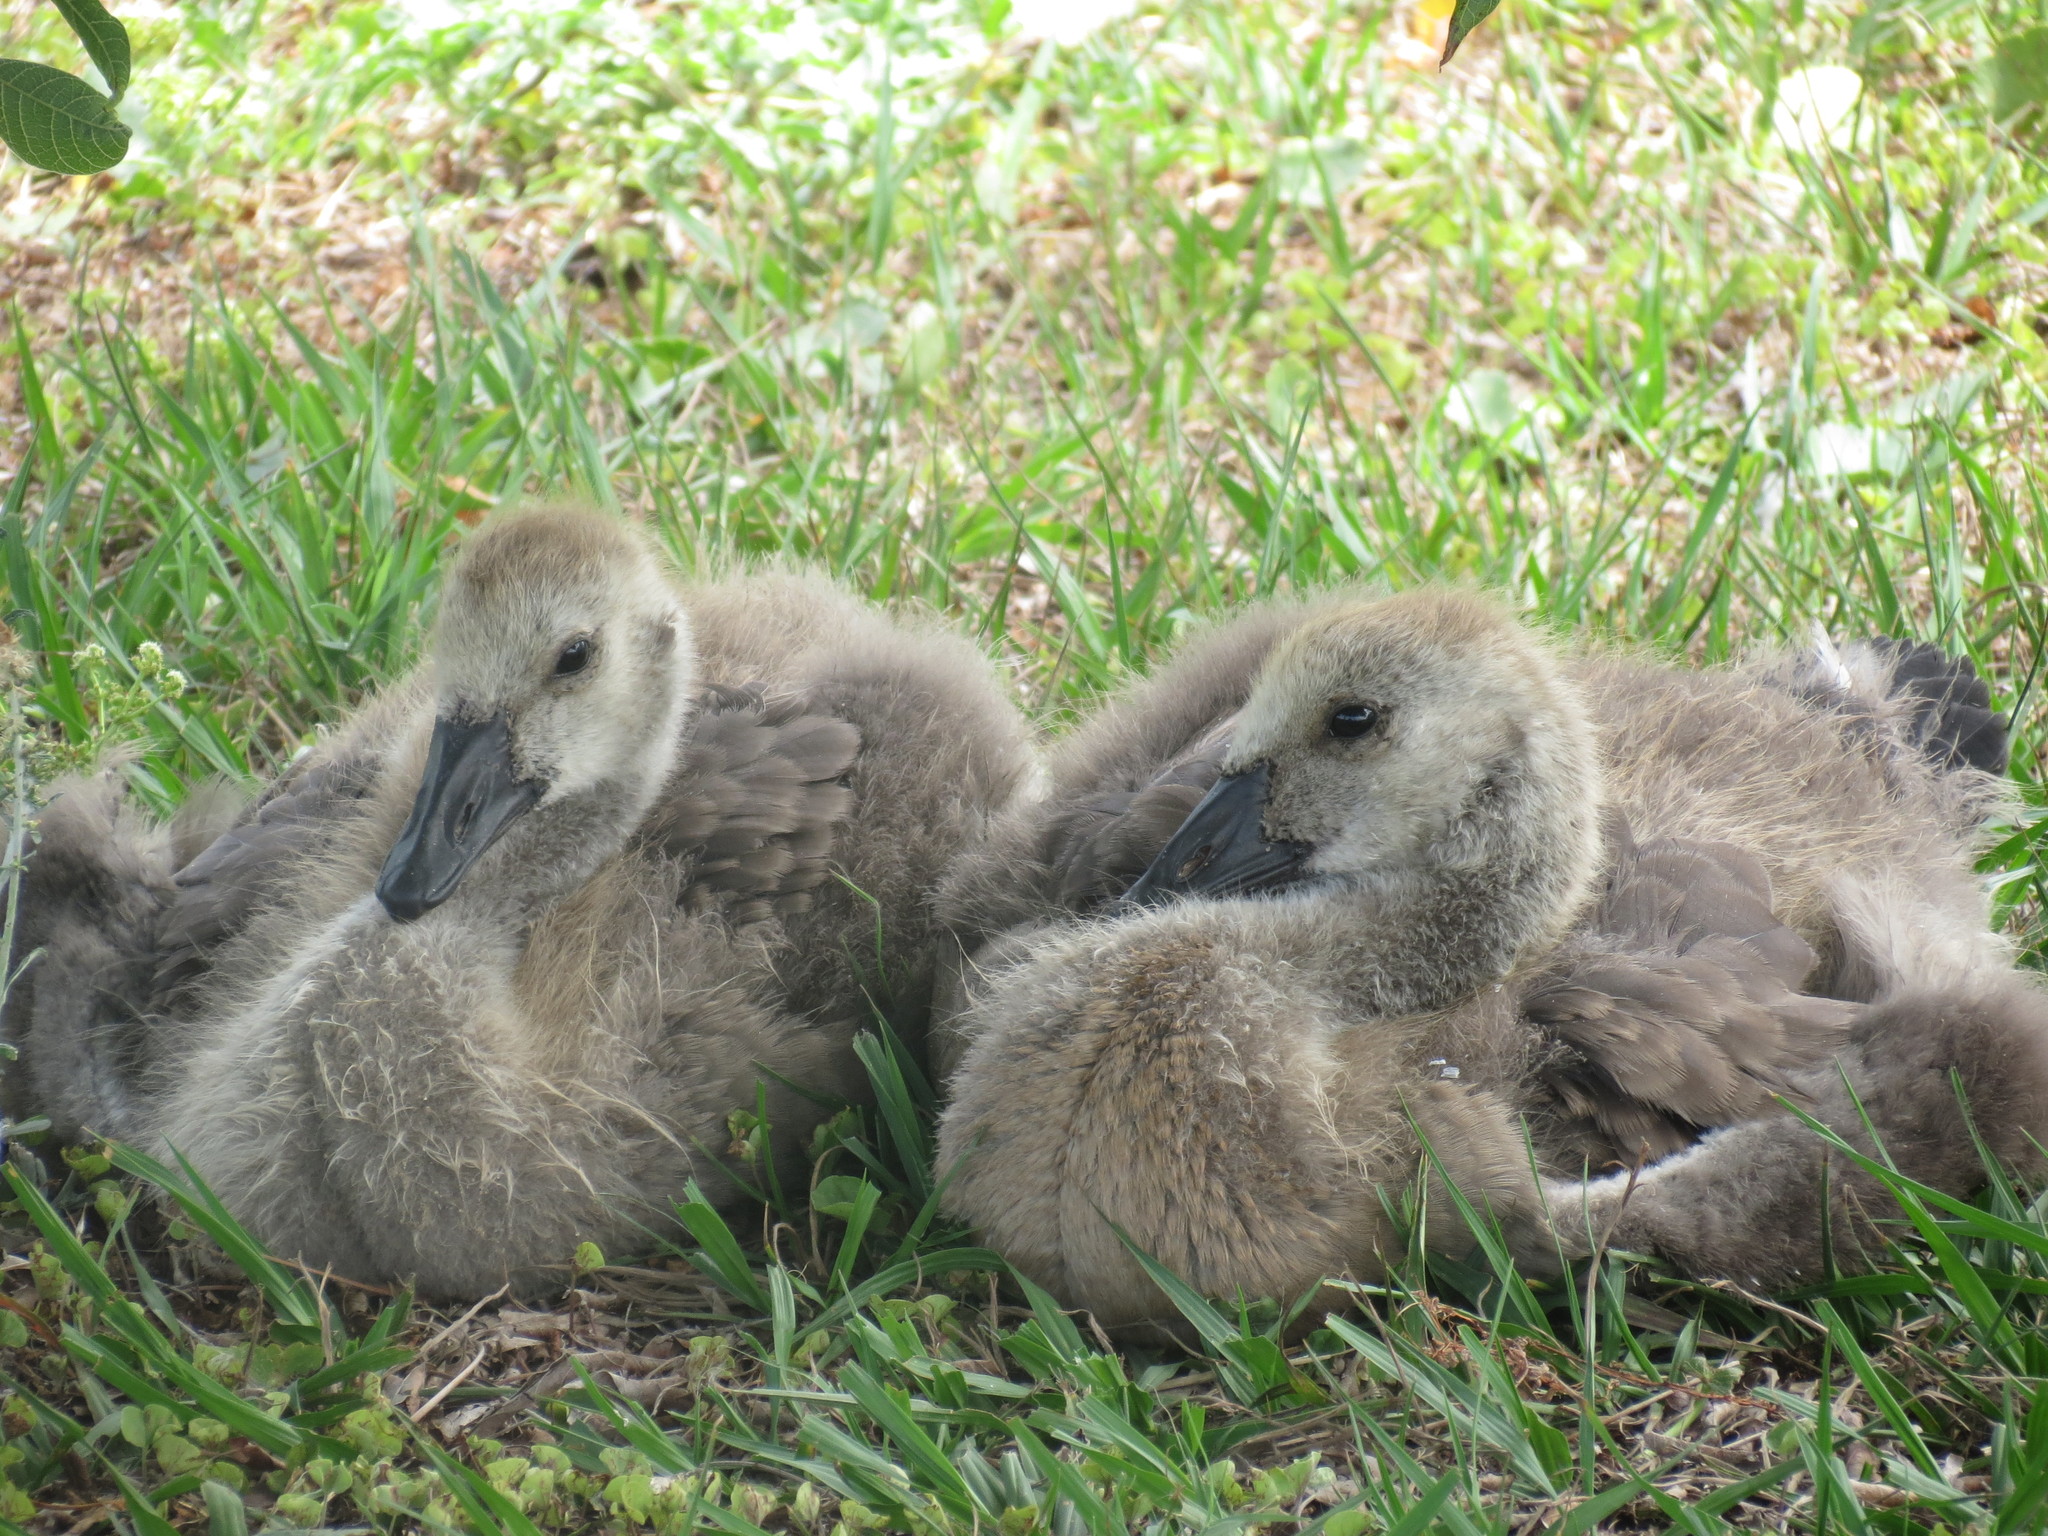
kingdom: Animalia
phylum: Chordata
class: Aves
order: Anseriformes
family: Anatidae
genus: Branta
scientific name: Branta canadensis
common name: Canada goose
